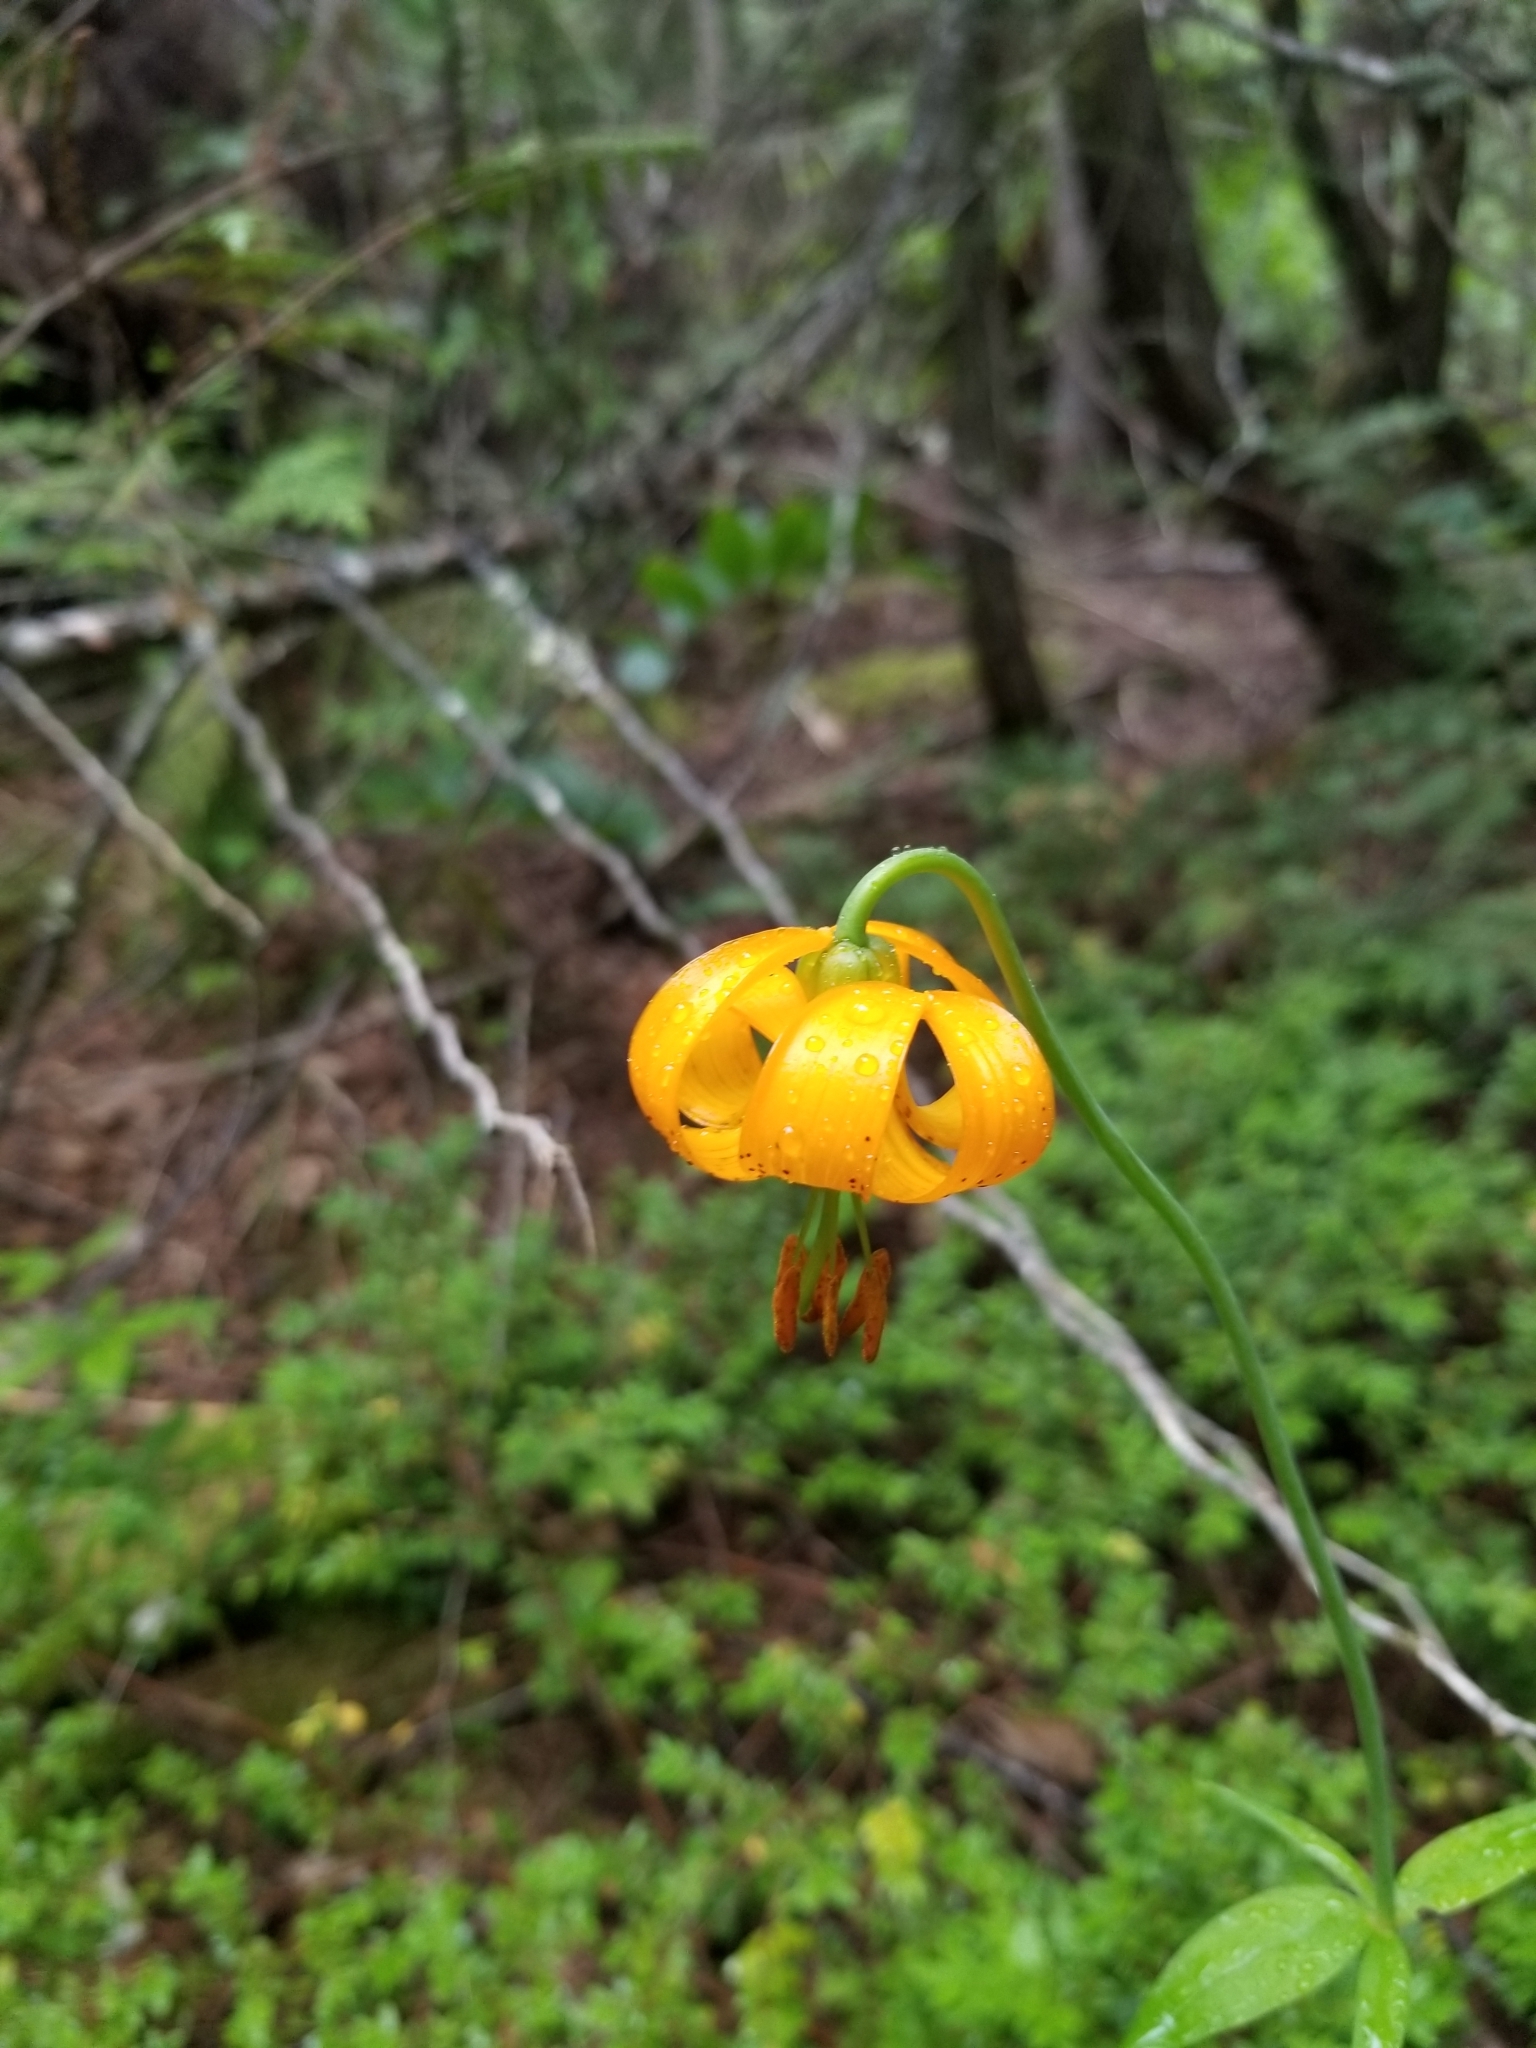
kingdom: Plantae
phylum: Tracheophyta
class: Liliopsida
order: Liliales
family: Liliaceae
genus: Lilium
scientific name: Lilium columbianum
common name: Columbia lily
